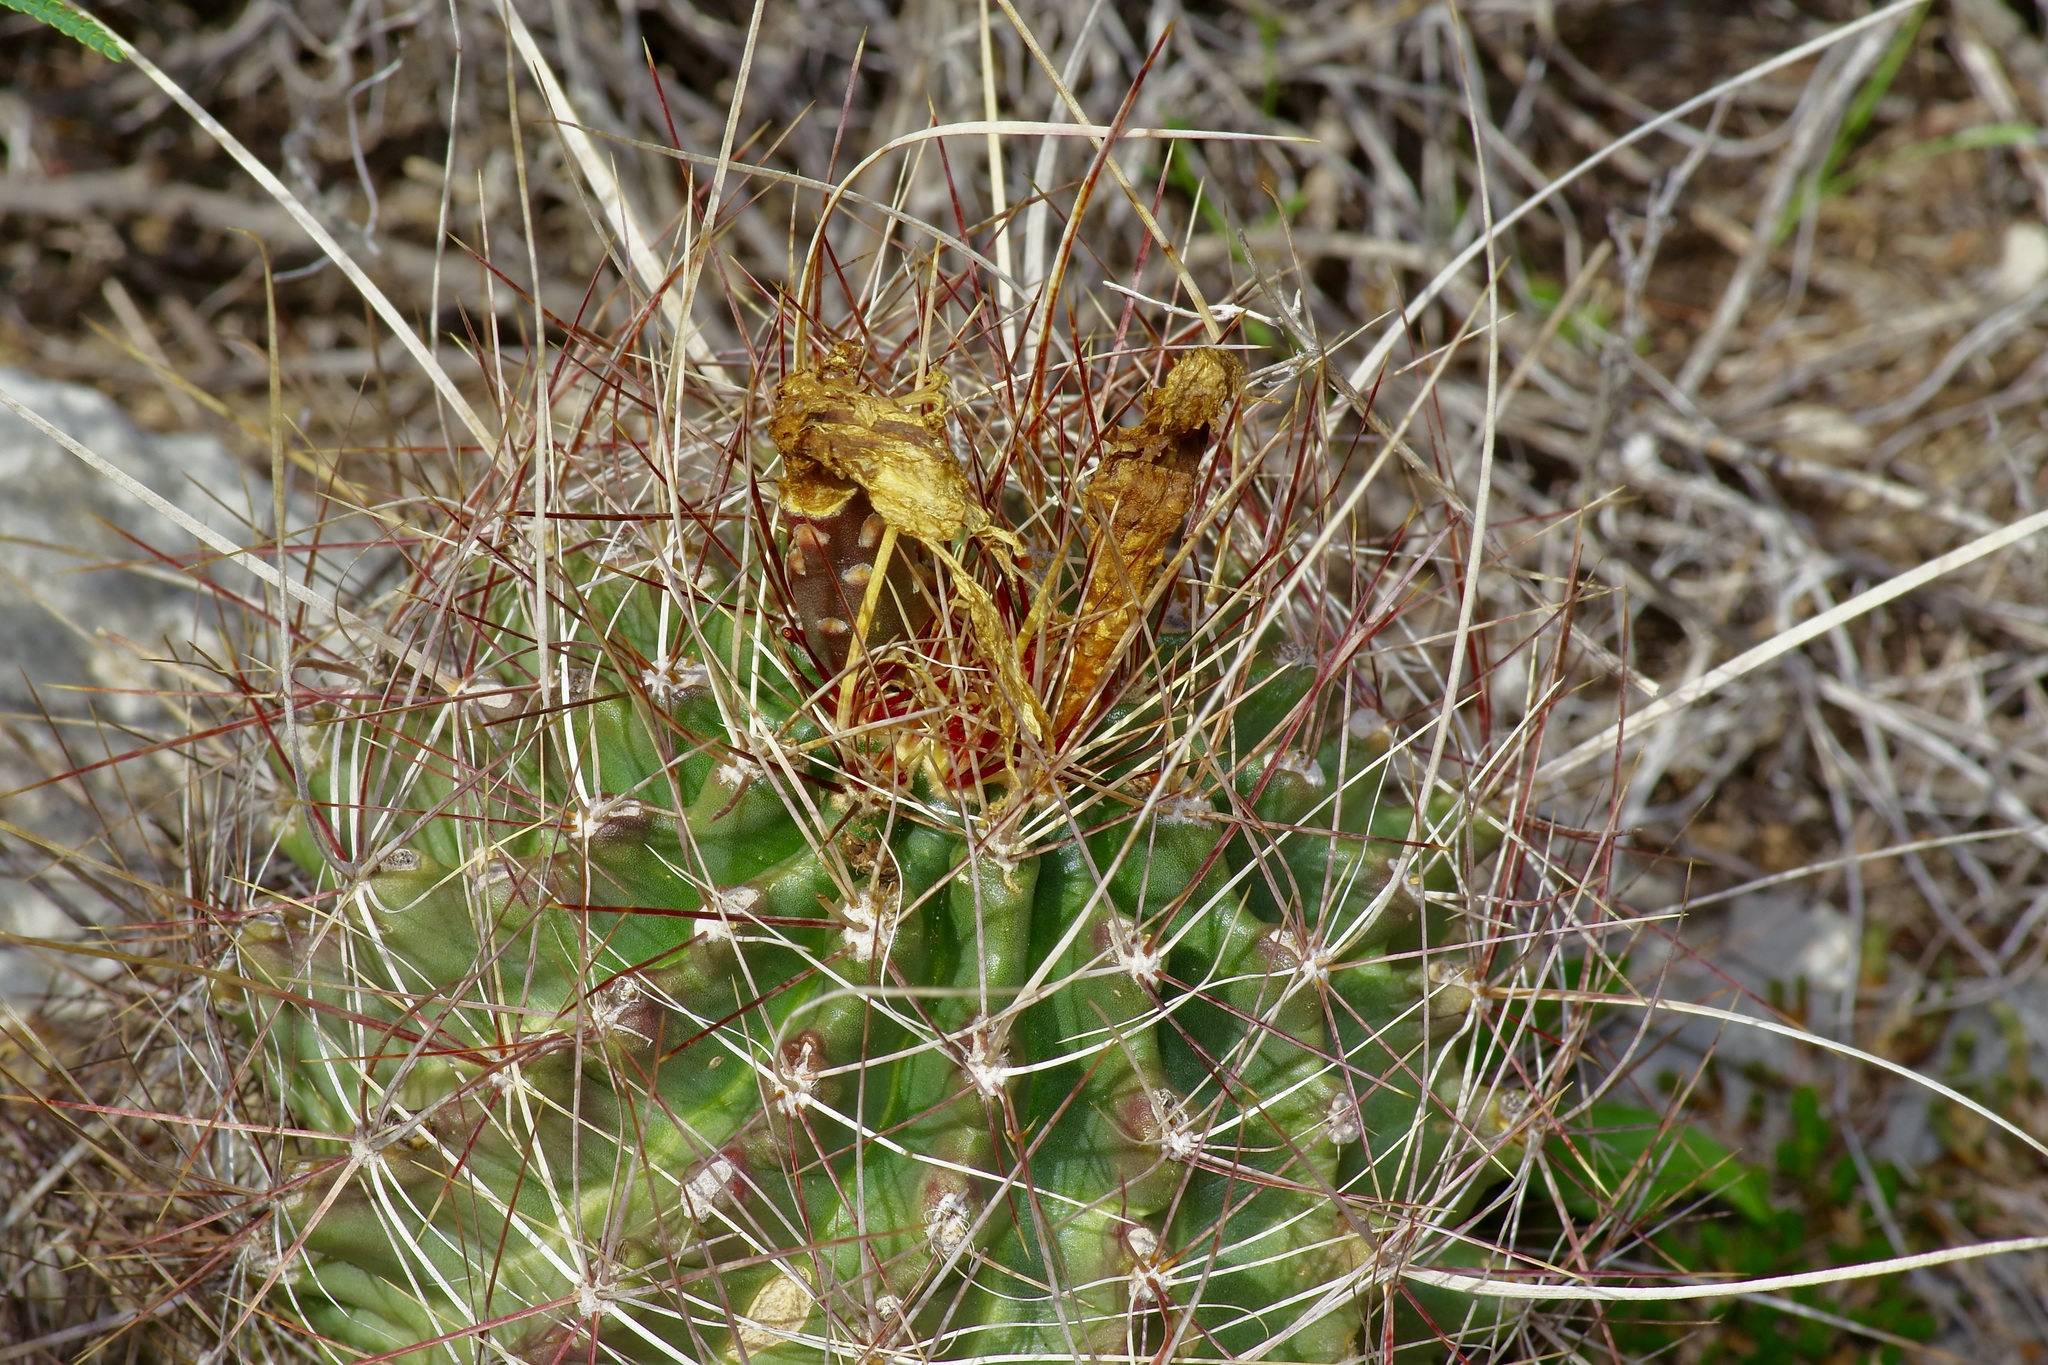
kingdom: Plantae
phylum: Tracheophyta
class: Magnoliopsida
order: Caryophyllales
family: Cactaceae
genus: Bisnaga
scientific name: Bisnaga hamatacantha
